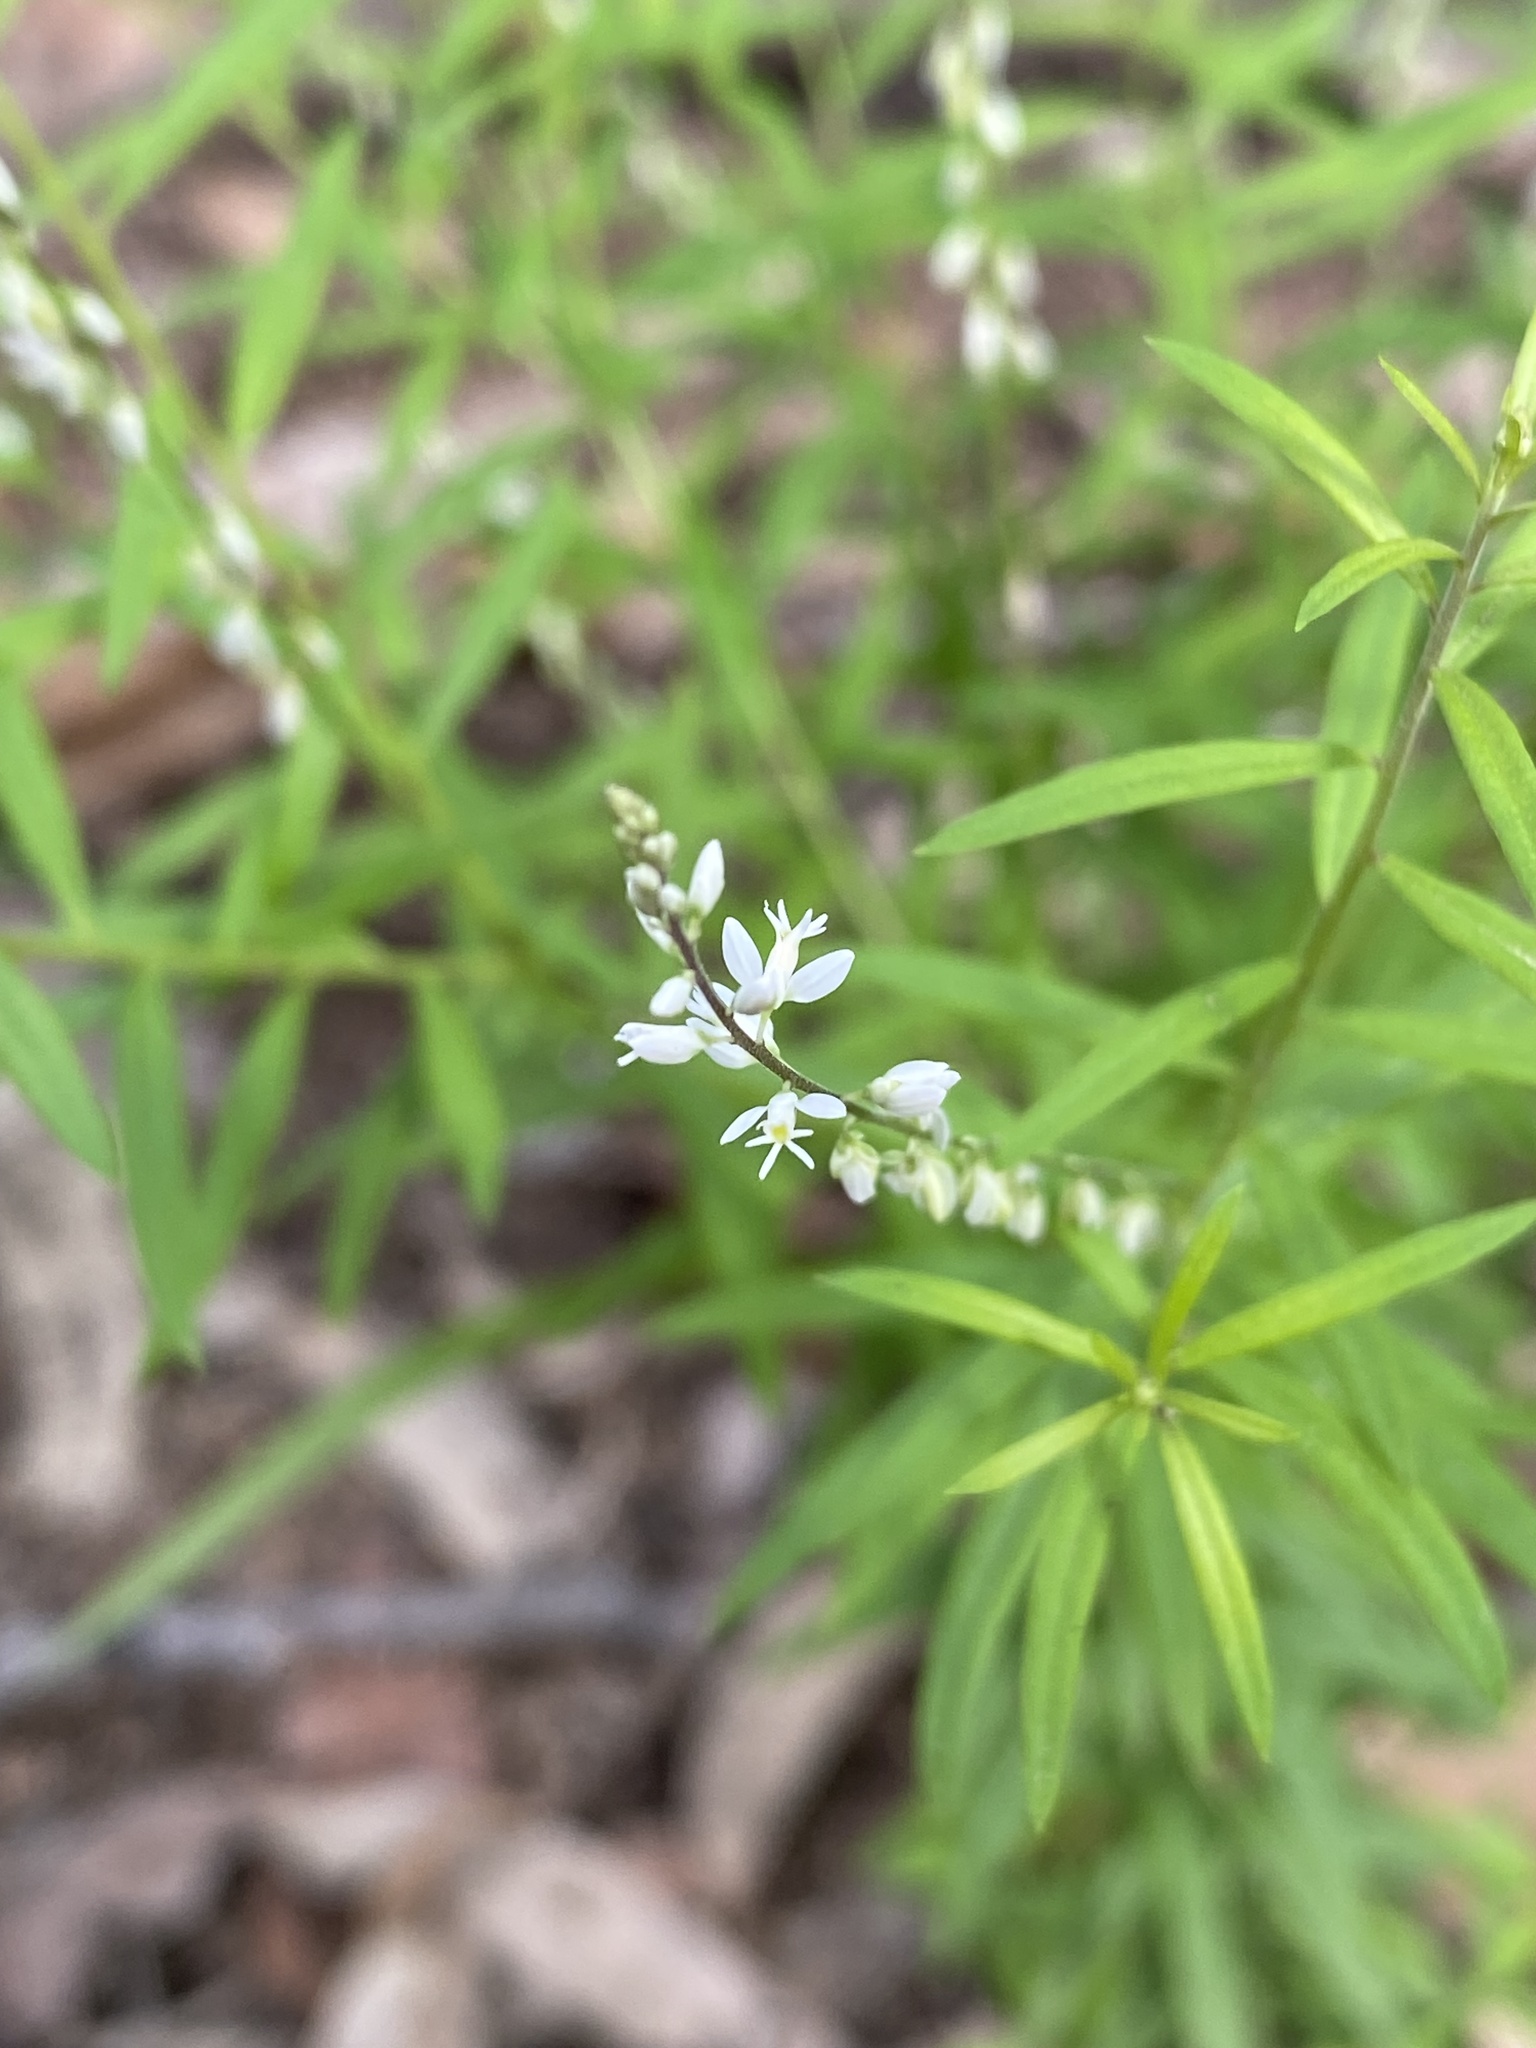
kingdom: Plantae
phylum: Tracheophyta
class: Magnoliopsida
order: Fabales
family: Polygalaceae
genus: Polygala
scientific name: Polygala paniculata
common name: Orosne
